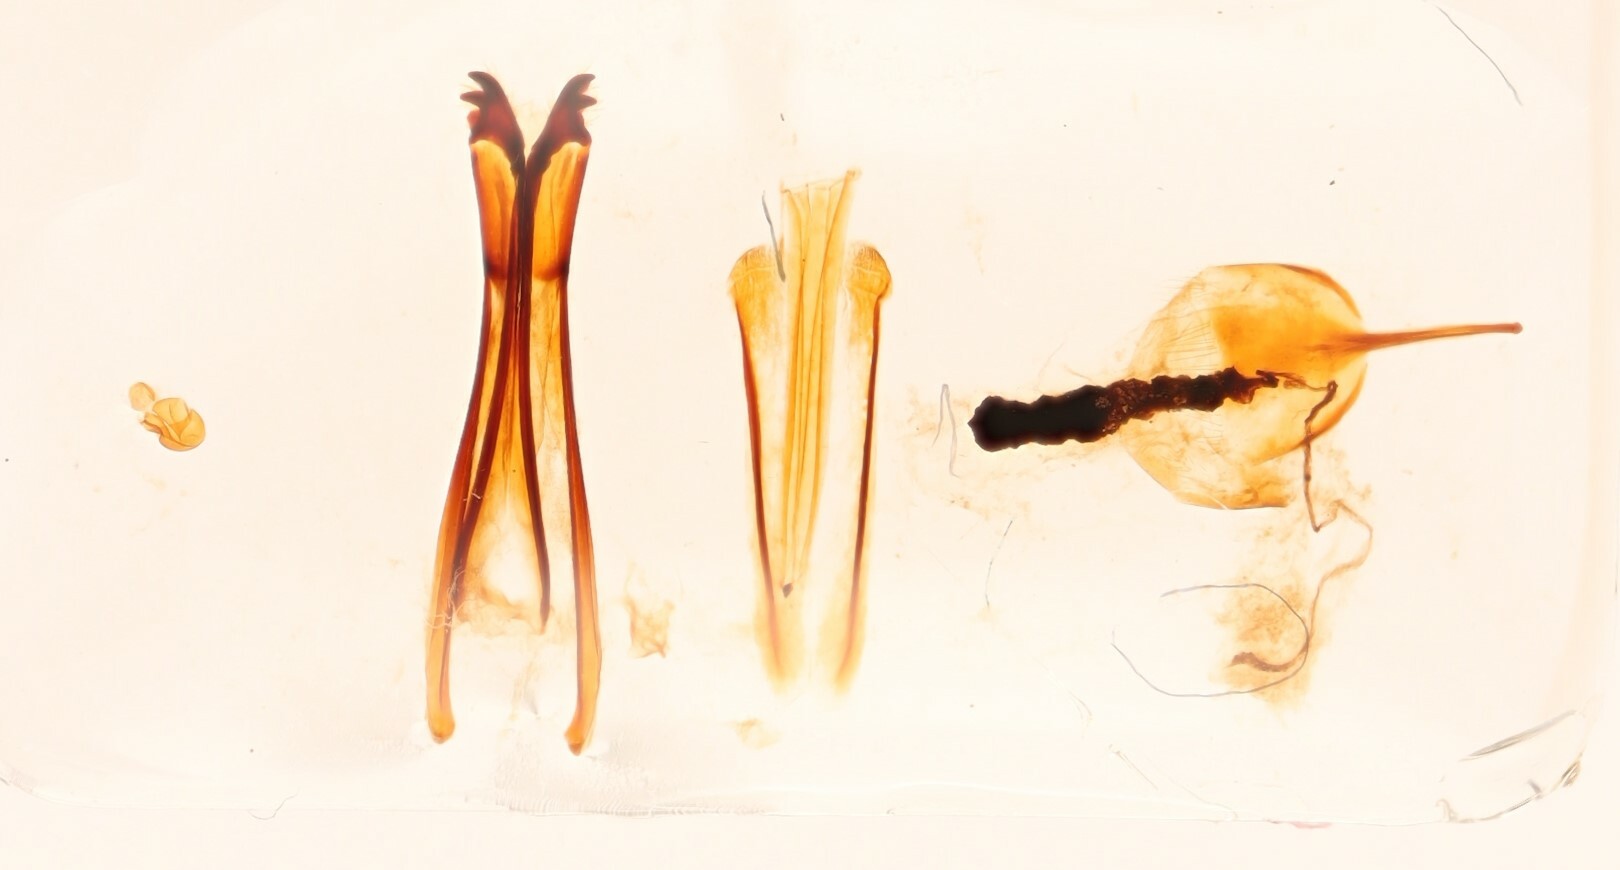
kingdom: Animalia
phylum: Arthropoda
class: Insecta
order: Coleoptera
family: Anthribidae
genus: Eurymycter
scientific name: Eurymycter tricarinatus
